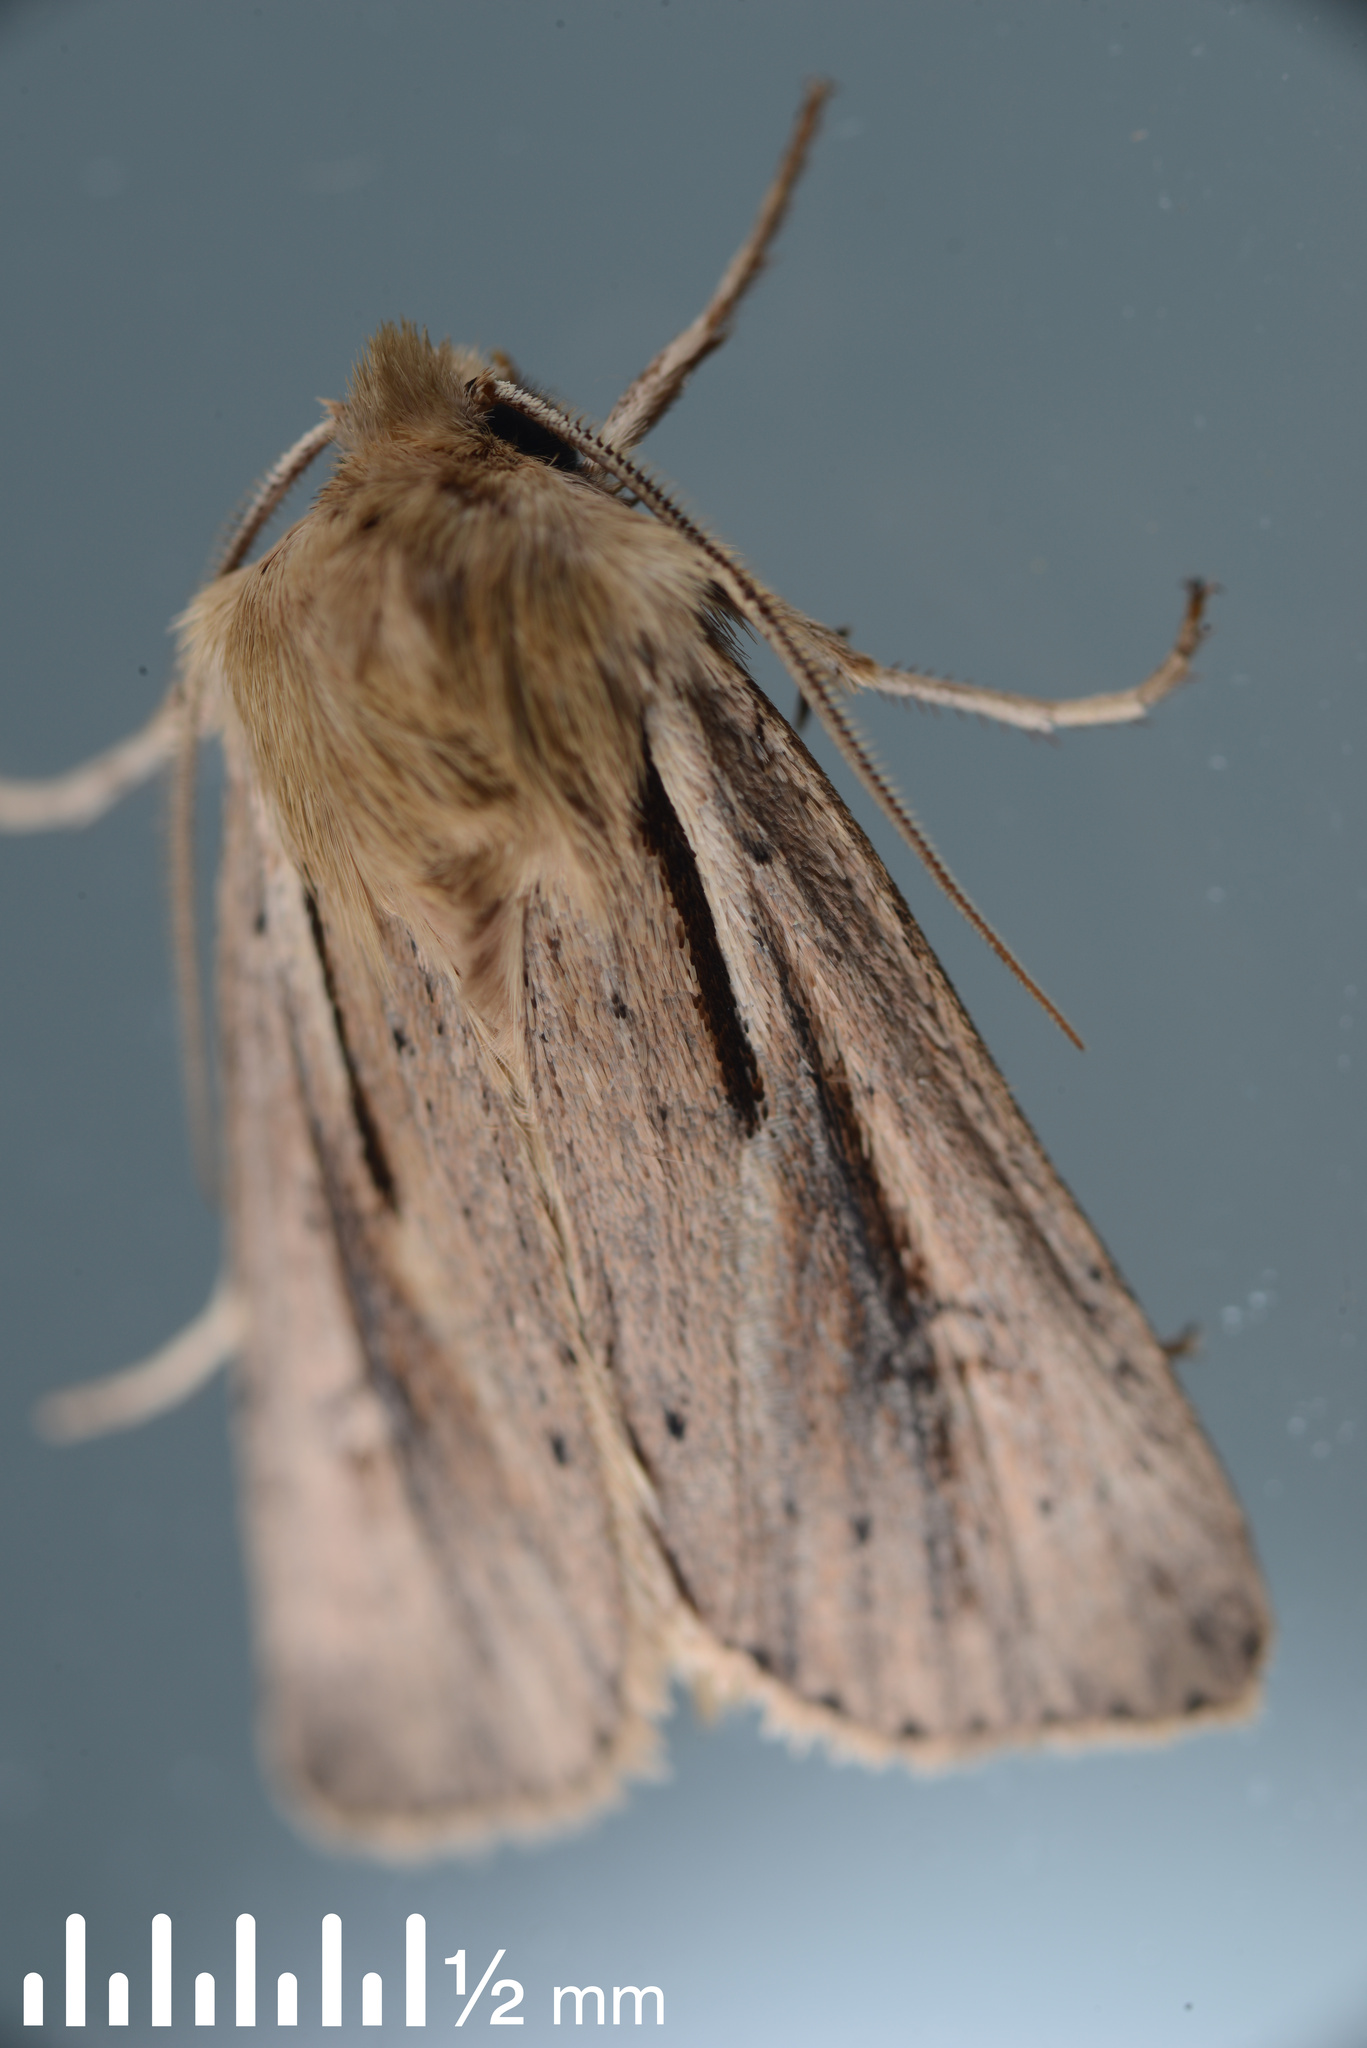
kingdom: Animalia
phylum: Arthropoda
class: Insecta
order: Lepidoptera
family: Noctuidae
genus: Ichneutica
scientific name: Ichneutica propria
